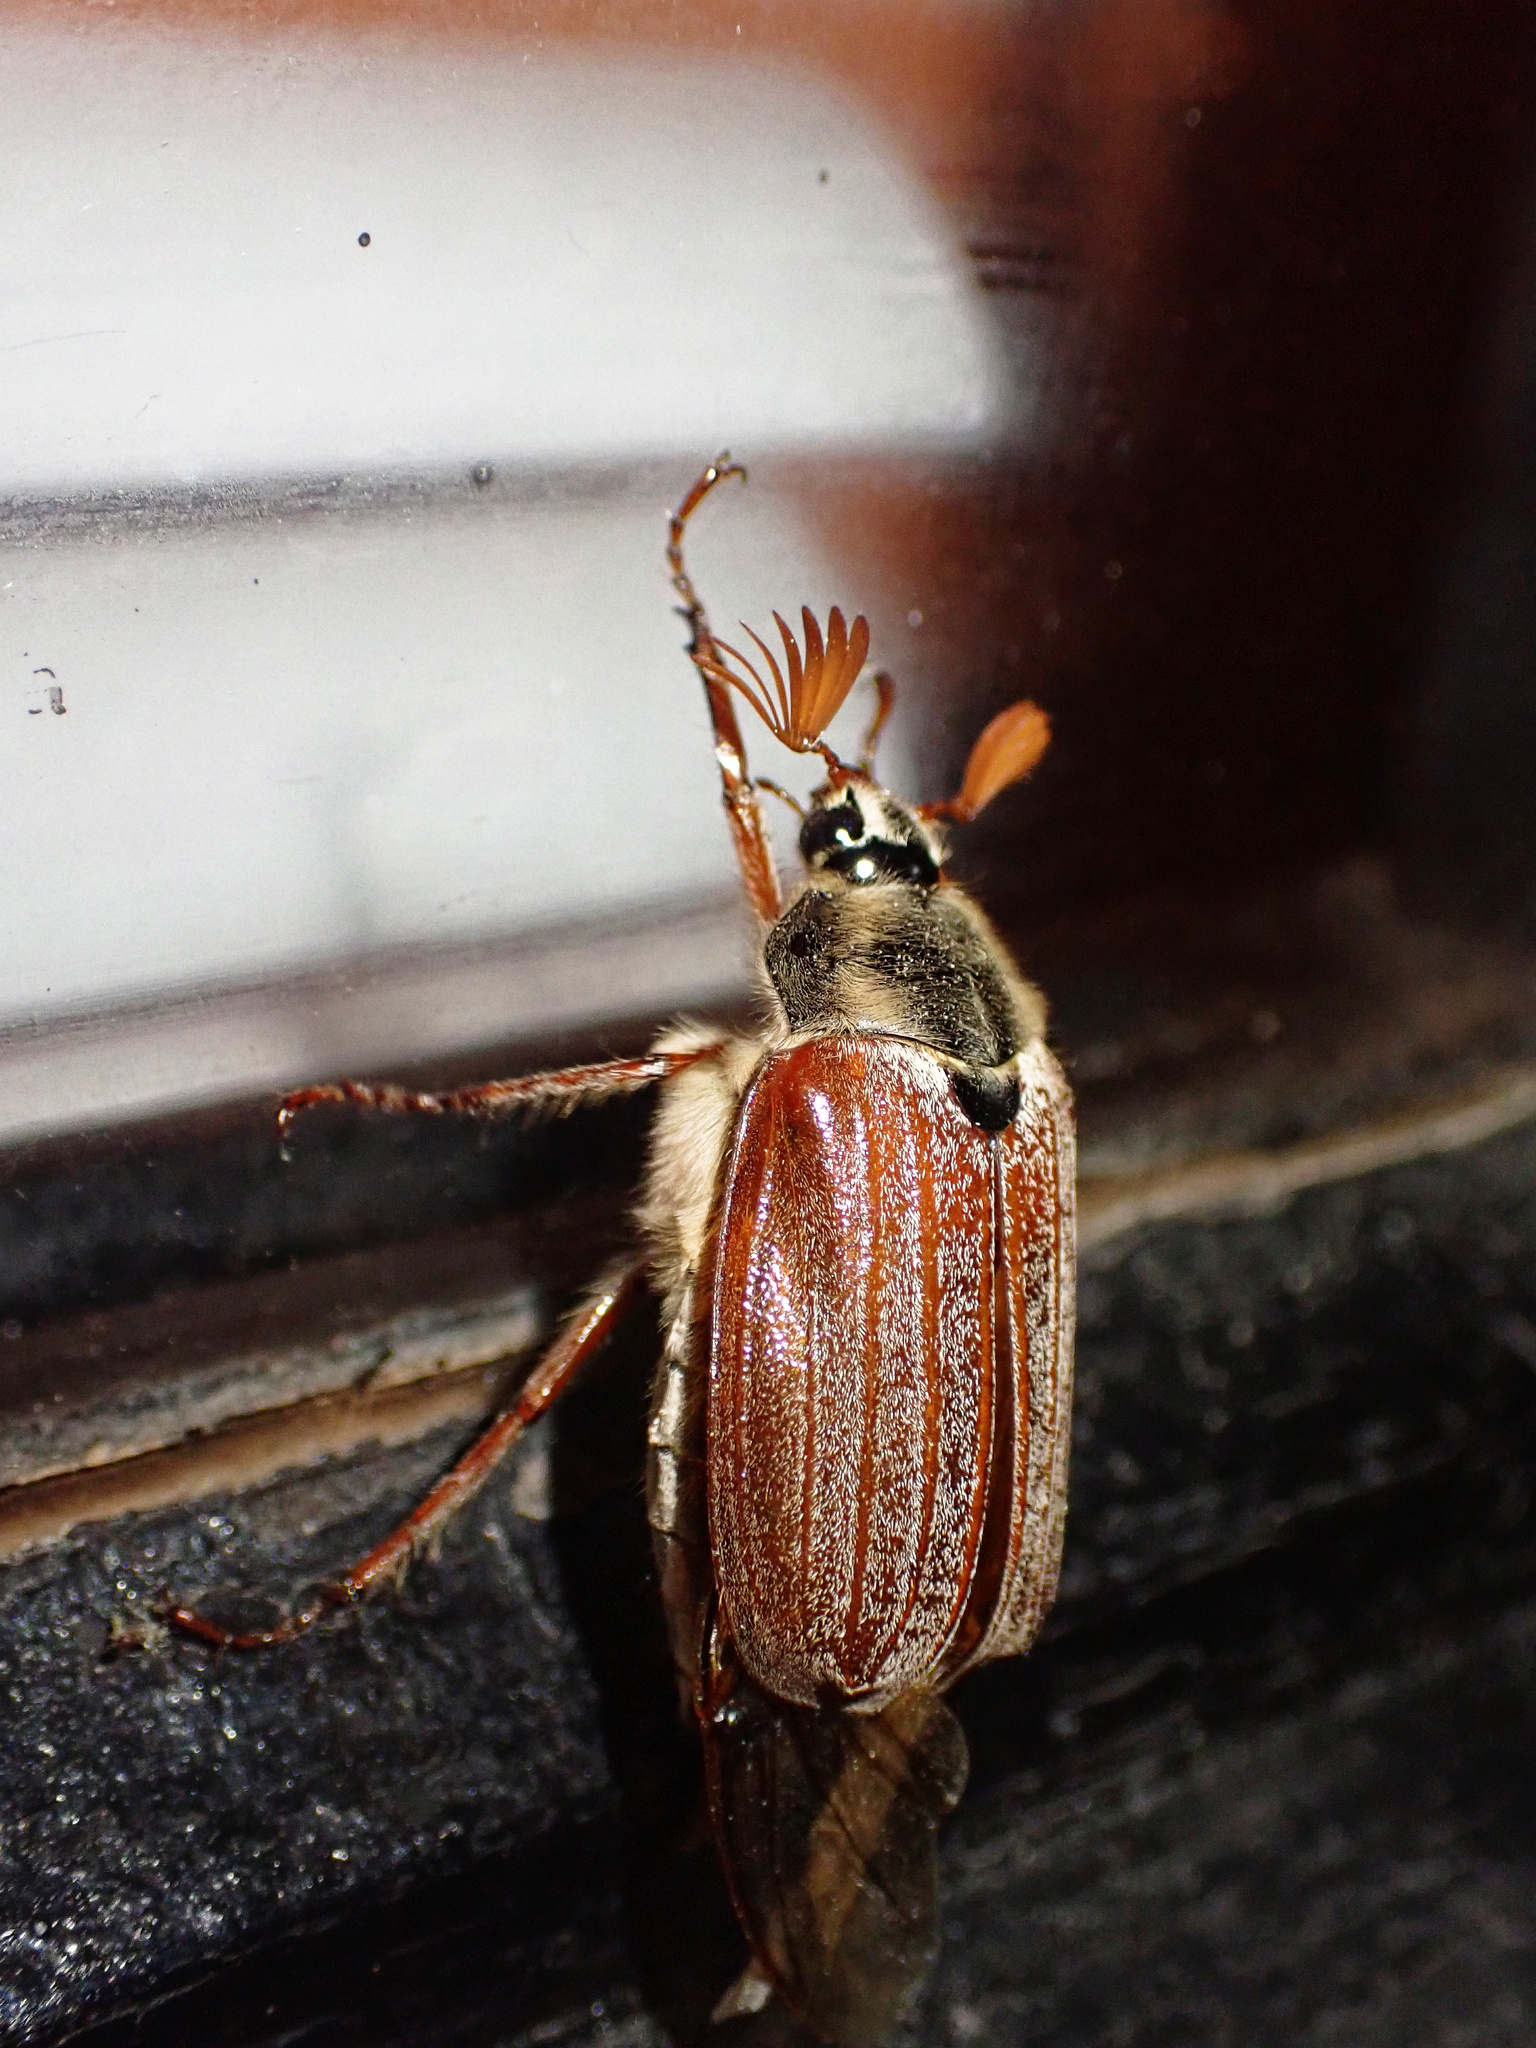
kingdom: Animalia
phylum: Arthropoda
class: Insecta
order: Coleoptera
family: Scarabaeidae
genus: Melolontha
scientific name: Melolontha melolontha
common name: Cockchafer maybeetle
